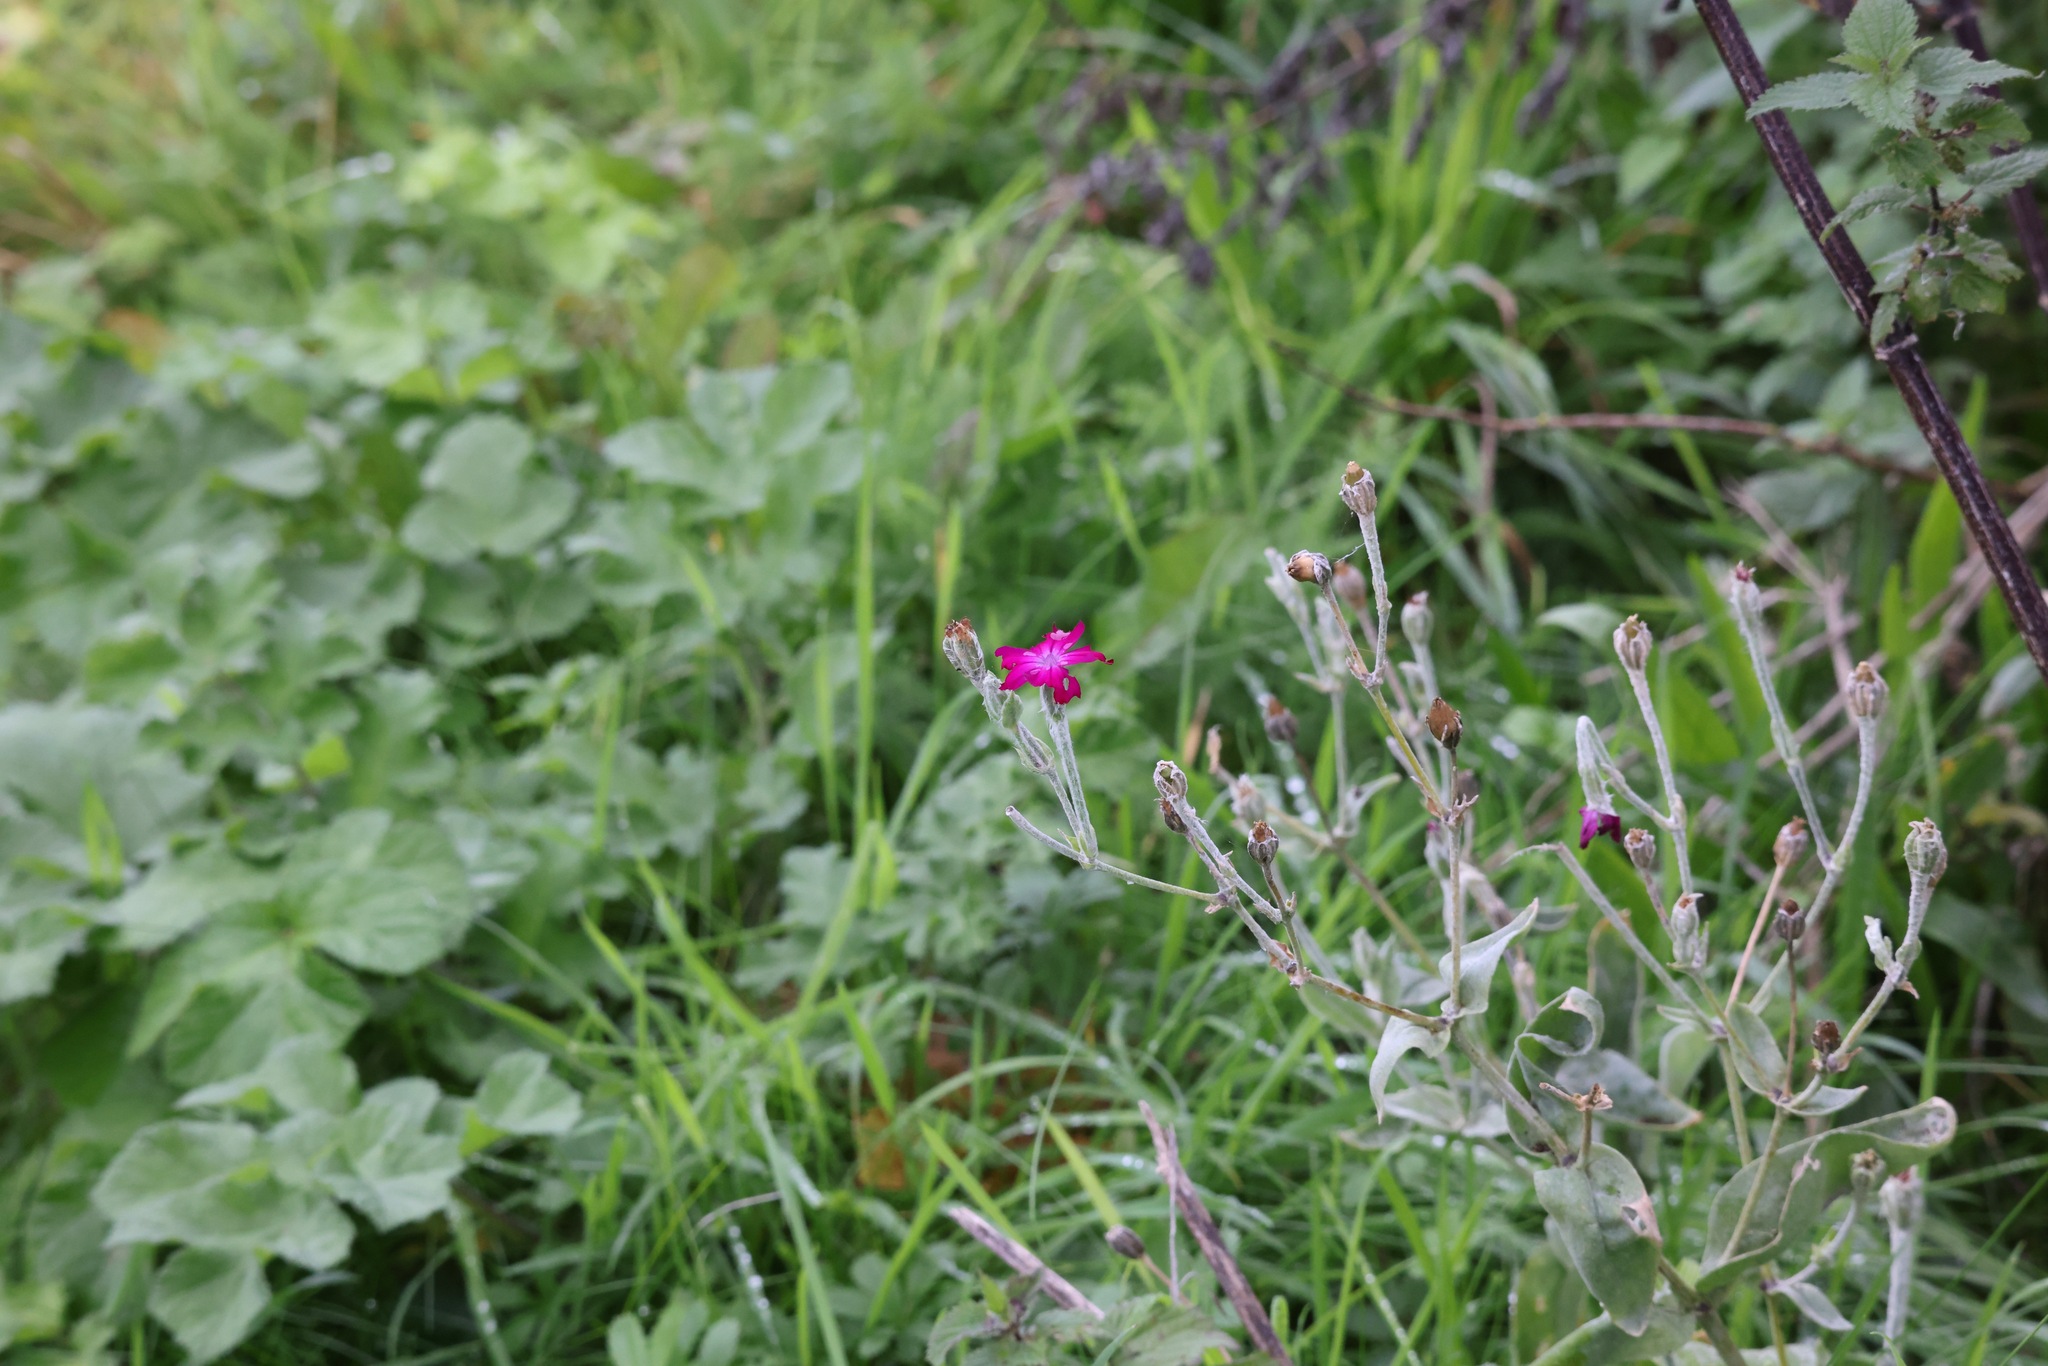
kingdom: Plantae
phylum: Tracheophyta
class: Magnoliopsida
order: Caryophyllales
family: Caryophyllaceae
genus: Silene
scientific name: Silene coronaria
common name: Rose campion
